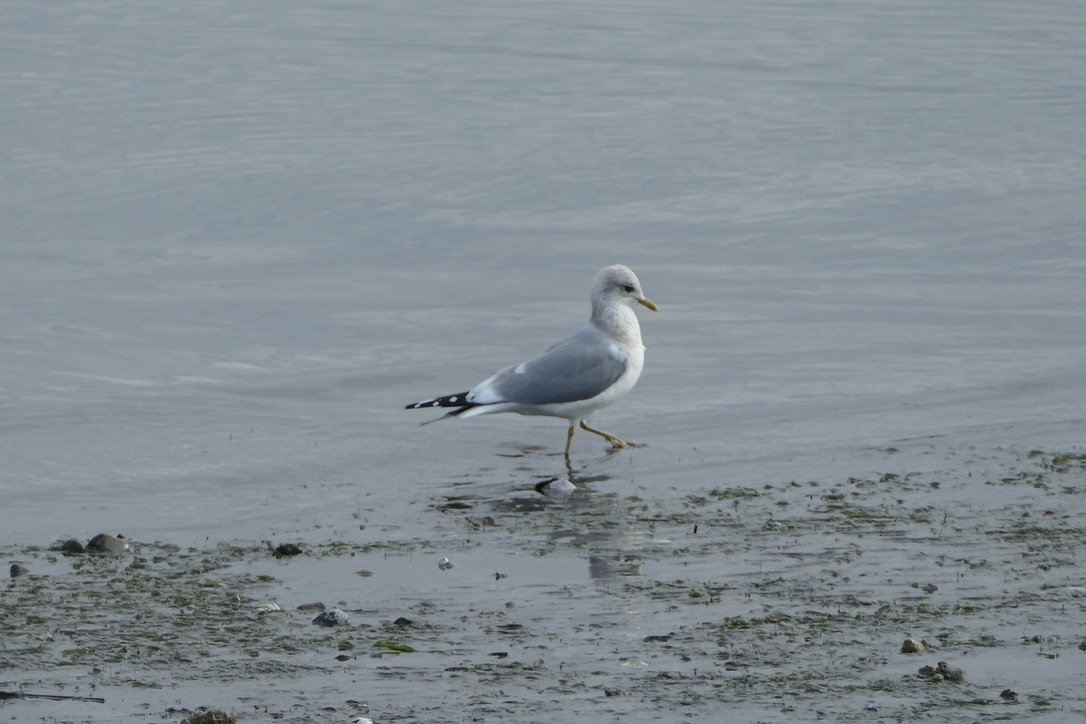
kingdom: Animalia
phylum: Chordata
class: Aves
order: Charadriiformes
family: Laridae
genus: Larus
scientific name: Larus brachyrhynchus
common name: Short-billed gull
